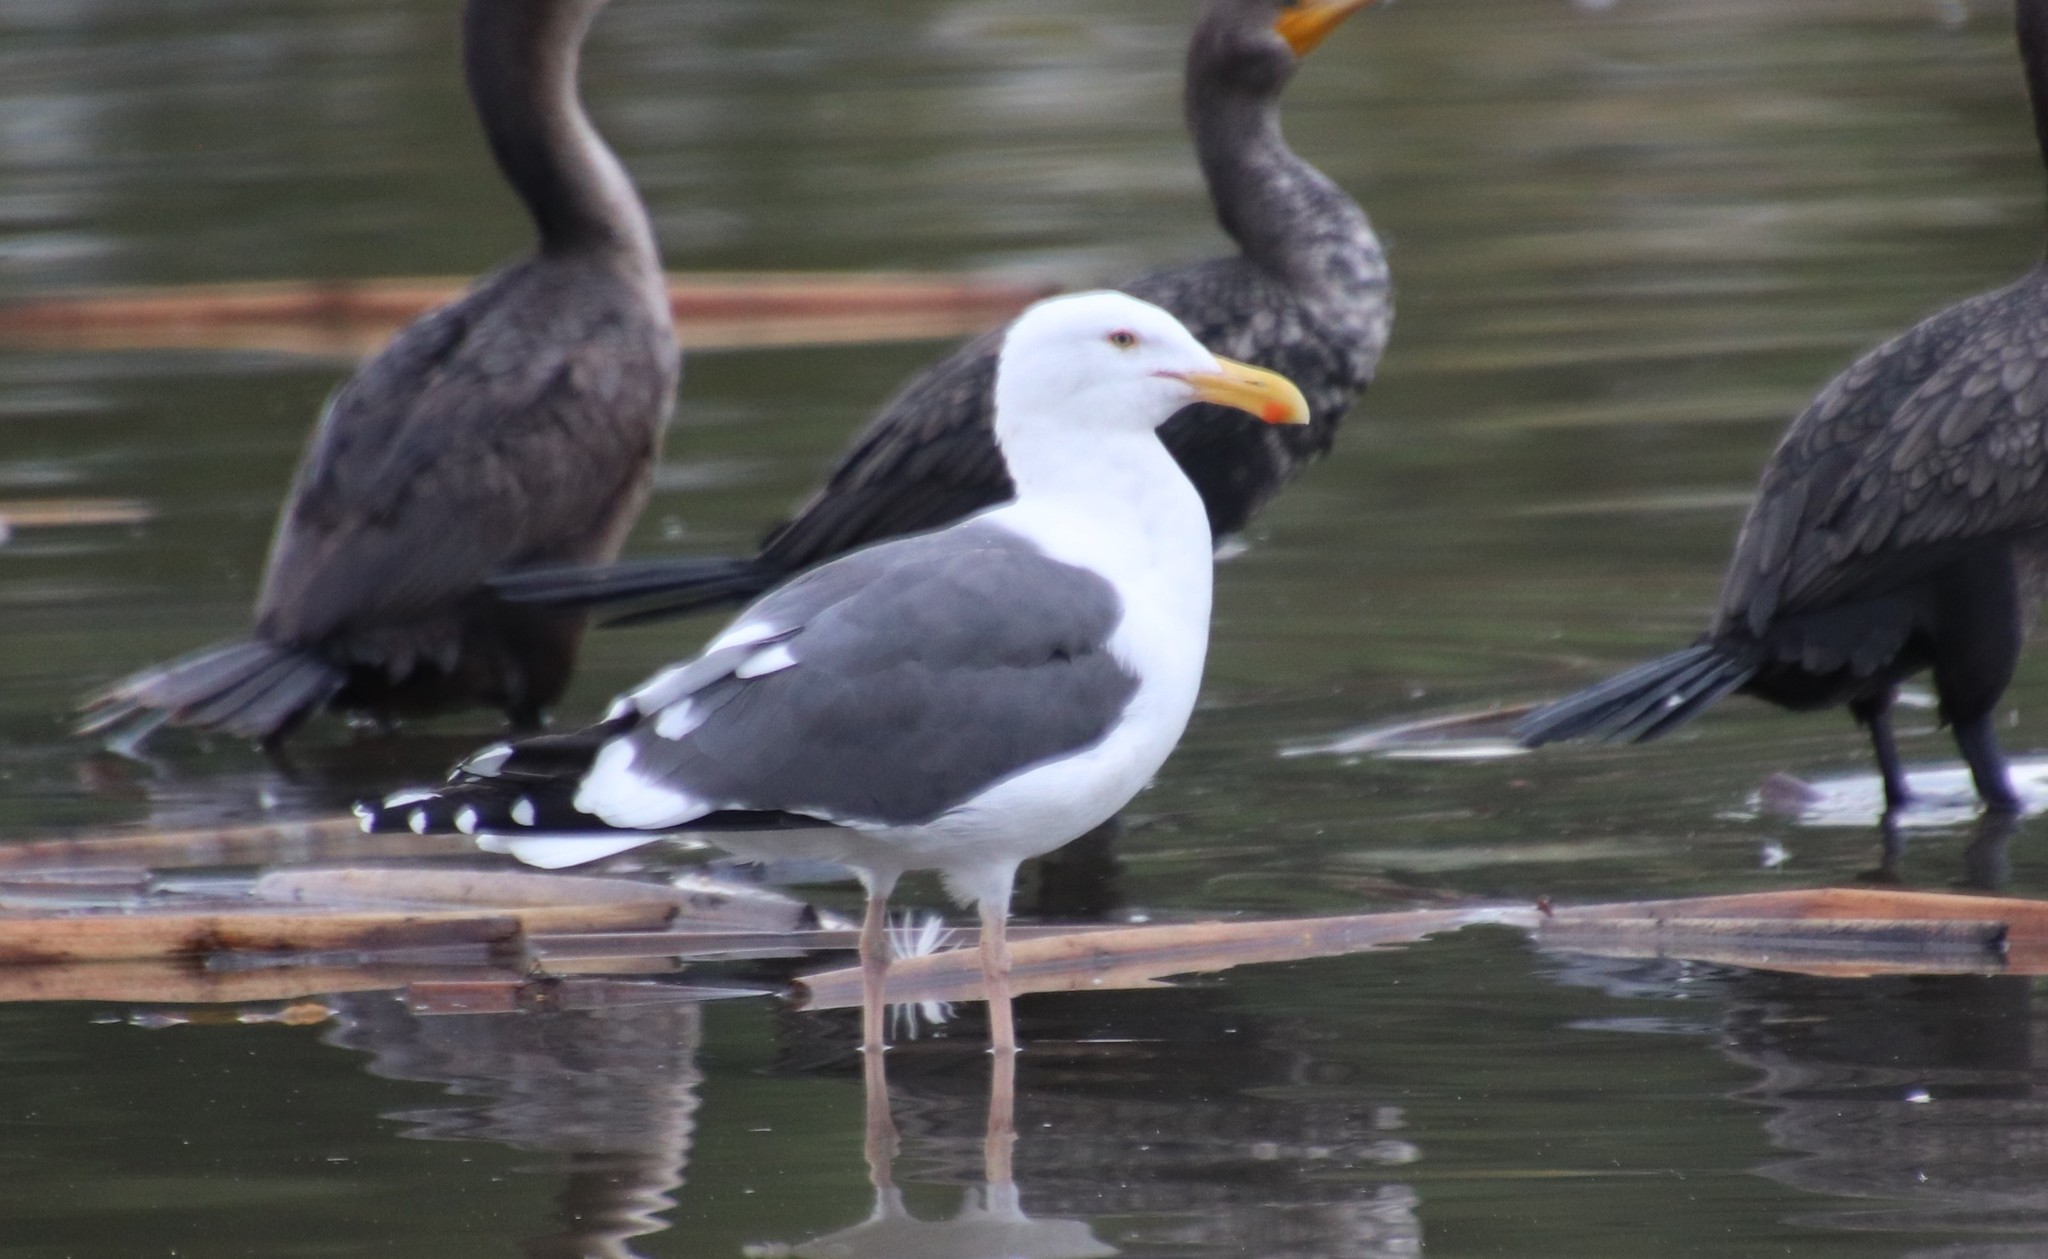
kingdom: Animalia
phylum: Chordata
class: Aves
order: Charadriiformes
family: Laridae
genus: Larus
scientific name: Larus occidentalis
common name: Western gull
